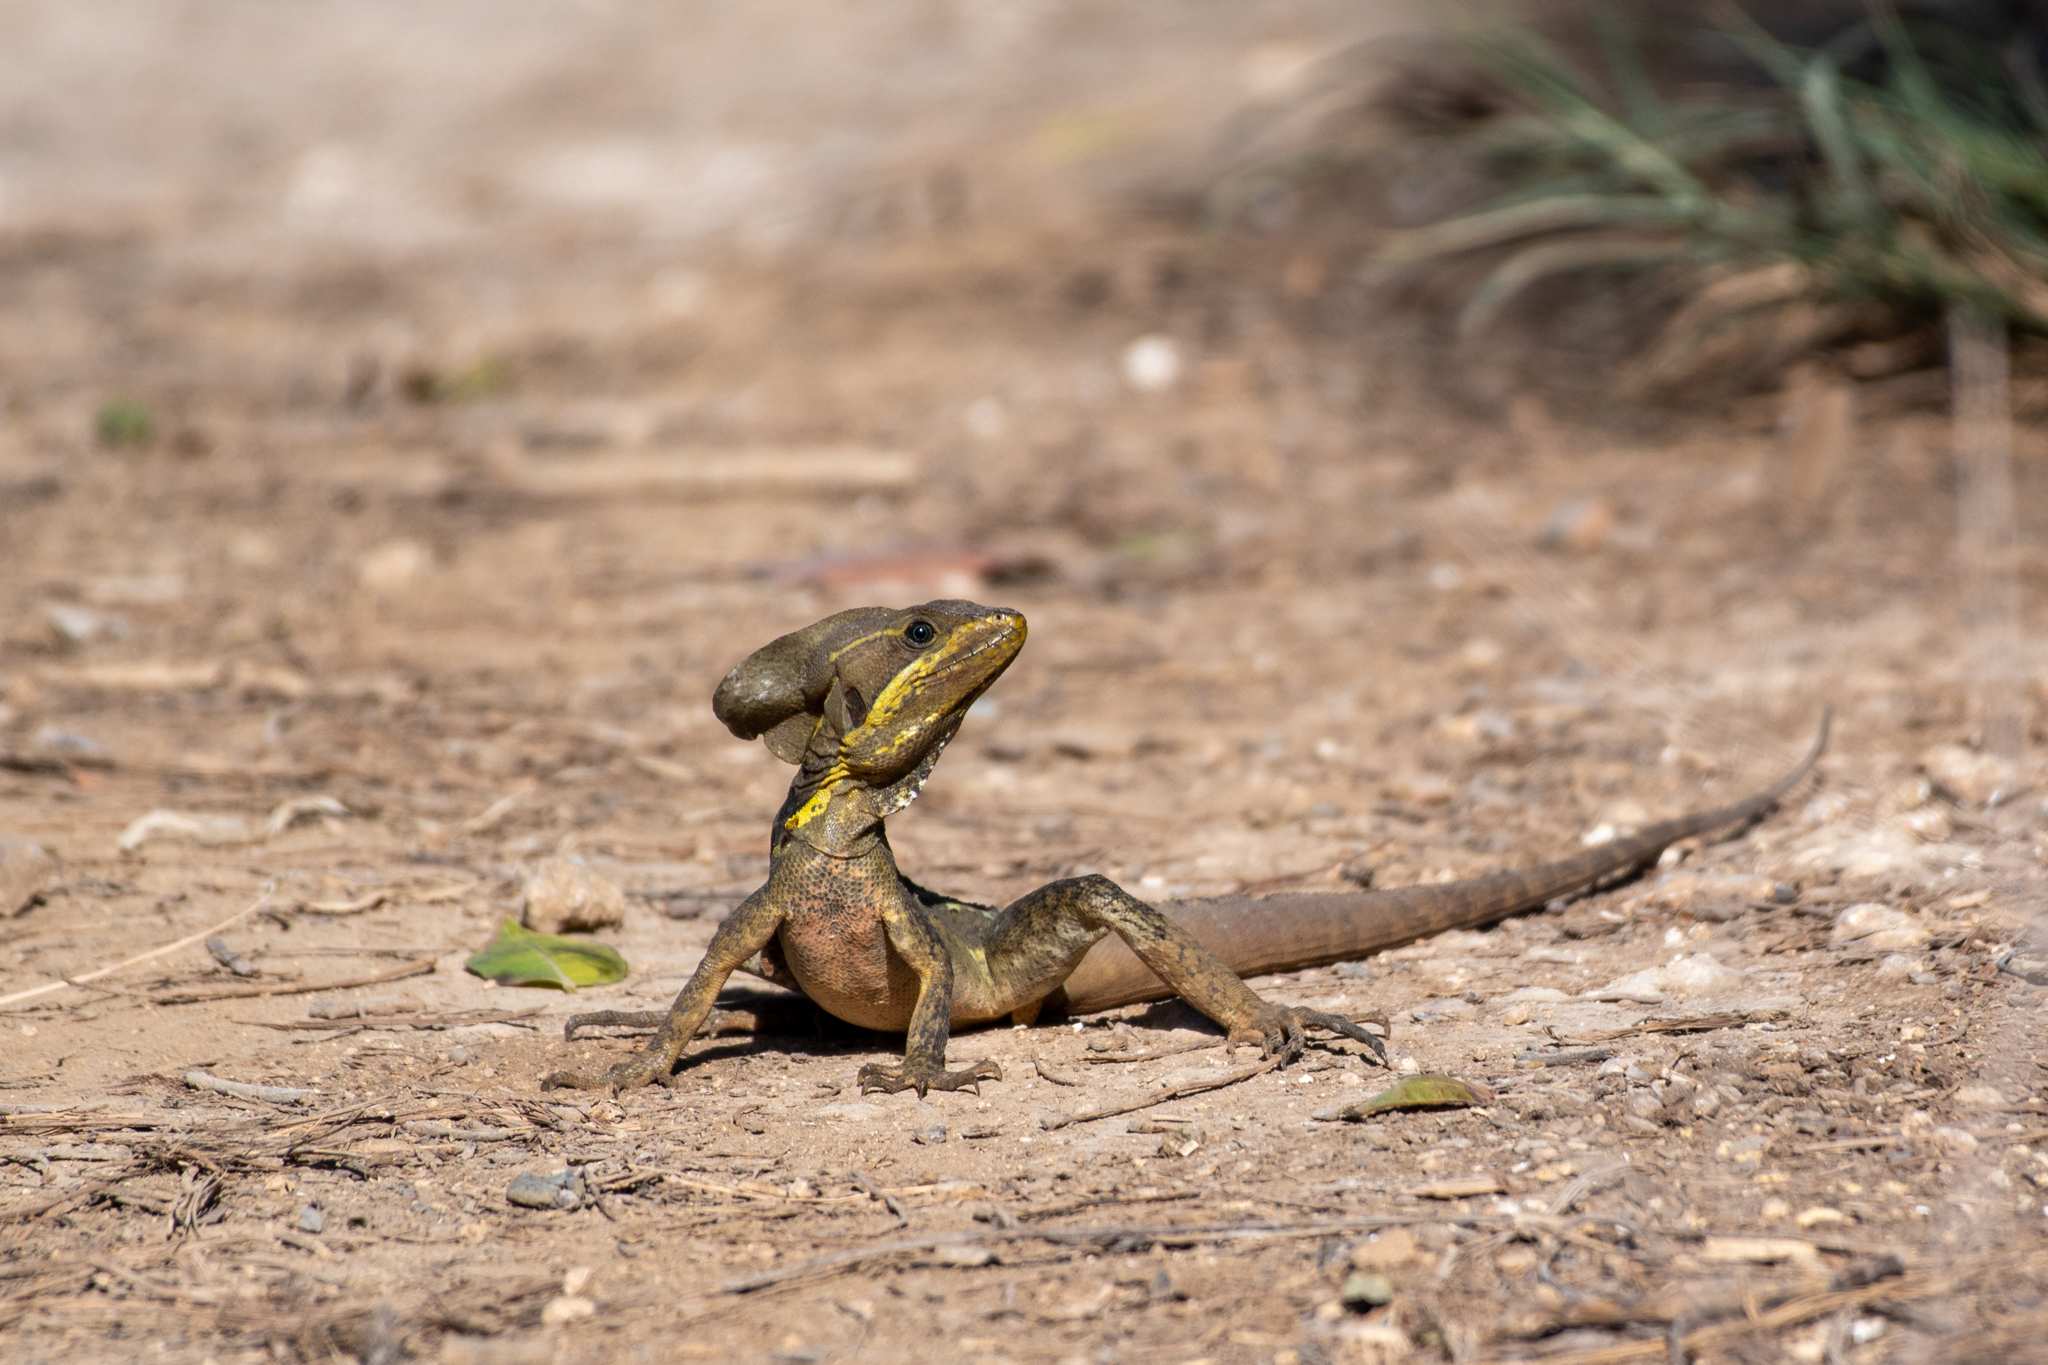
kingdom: Animalia
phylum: Chordata
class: Squamata
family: Corytophanidae
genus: Basiliscus
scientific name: Basiliscus vittatus
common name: Brown basilisk
